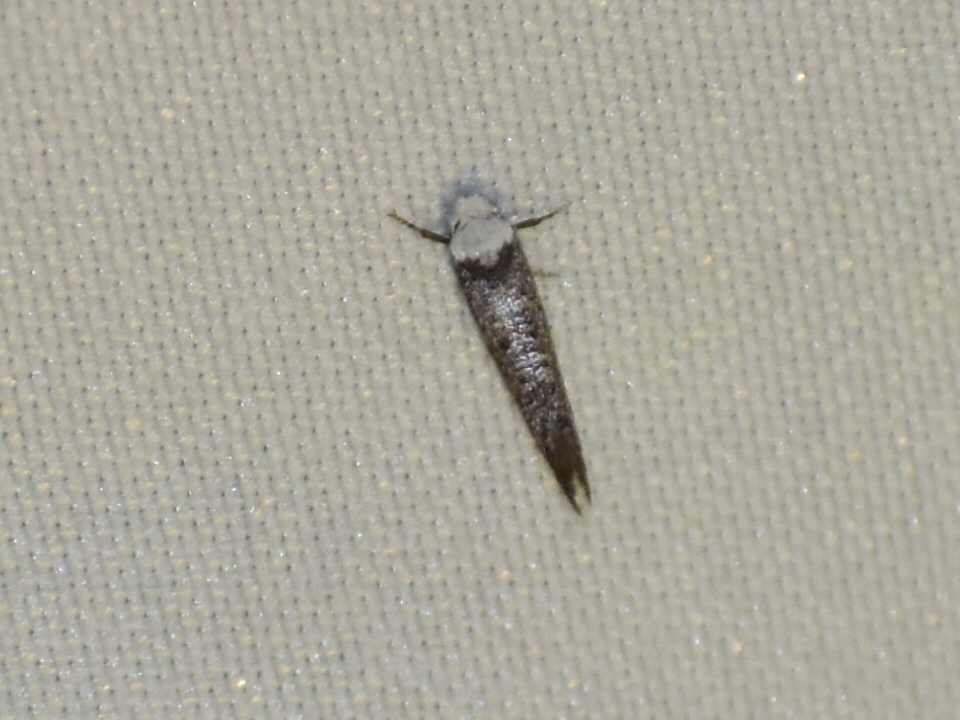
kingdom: Animalia
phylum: Arthropoda
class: Insecta
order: Lepidoptera
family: Yponomeutidae
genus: Swammerdamia
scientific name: Swammerdamia
